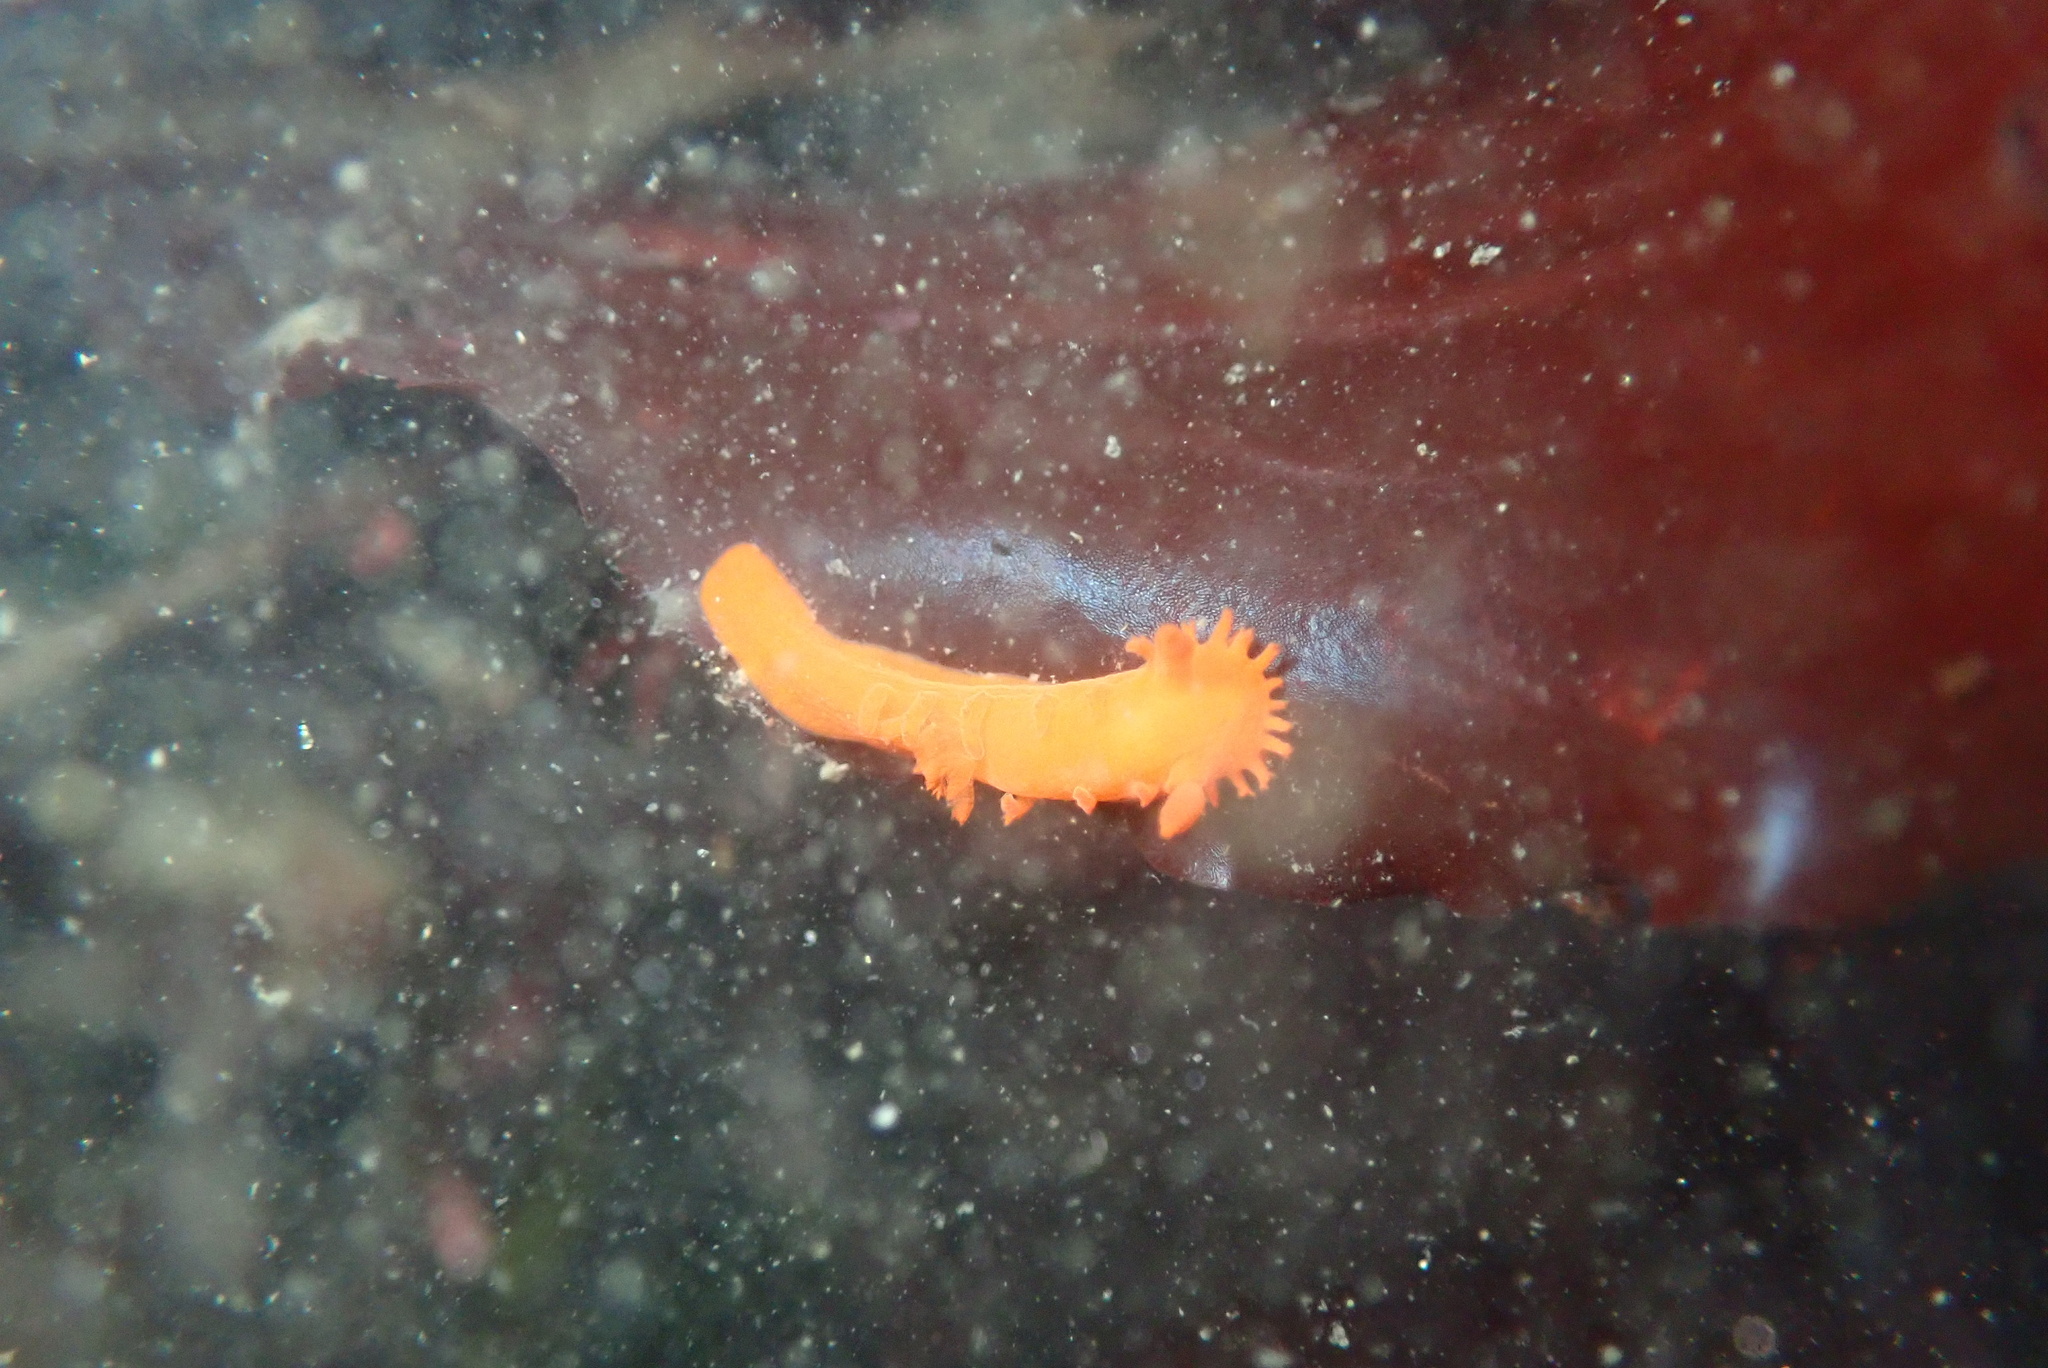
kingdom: Animalia
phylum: Mollusca
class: Gastropoda
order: Nudibranchia
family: Polyceridae
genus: Triopha
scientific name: Triopha maculata
